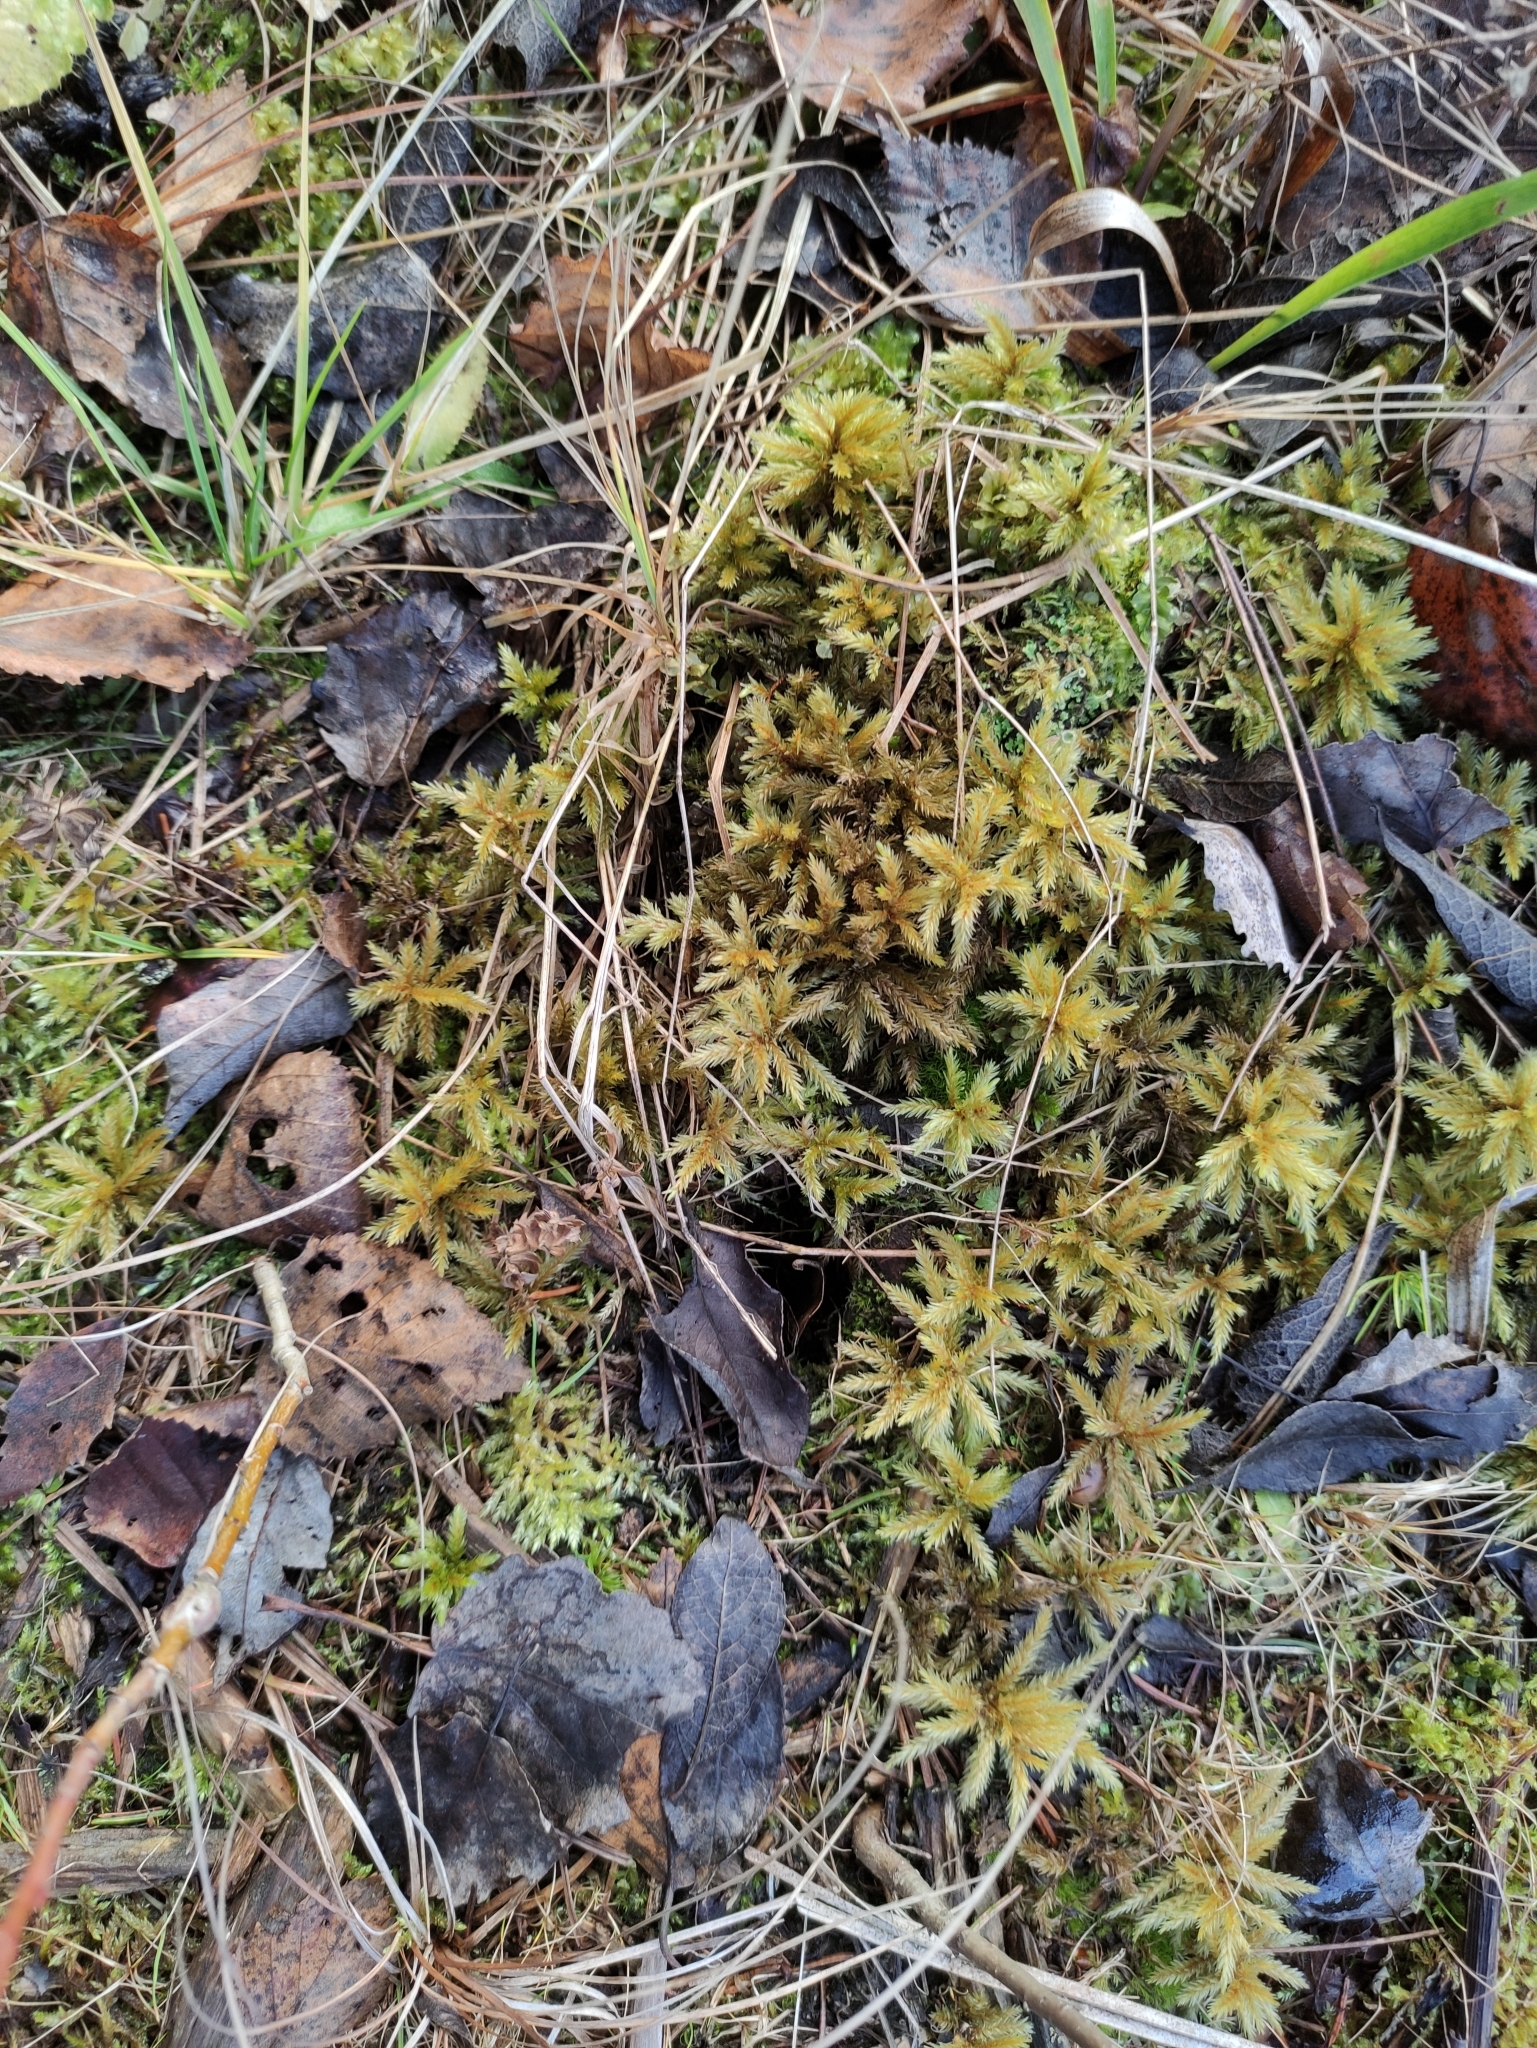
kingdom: Plantae
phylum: Bryophyta
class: Bryopsida
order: Hypnales
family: Climaciaceae
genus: Climacium
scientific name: Climacium dendroides
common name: Northern tree moss
